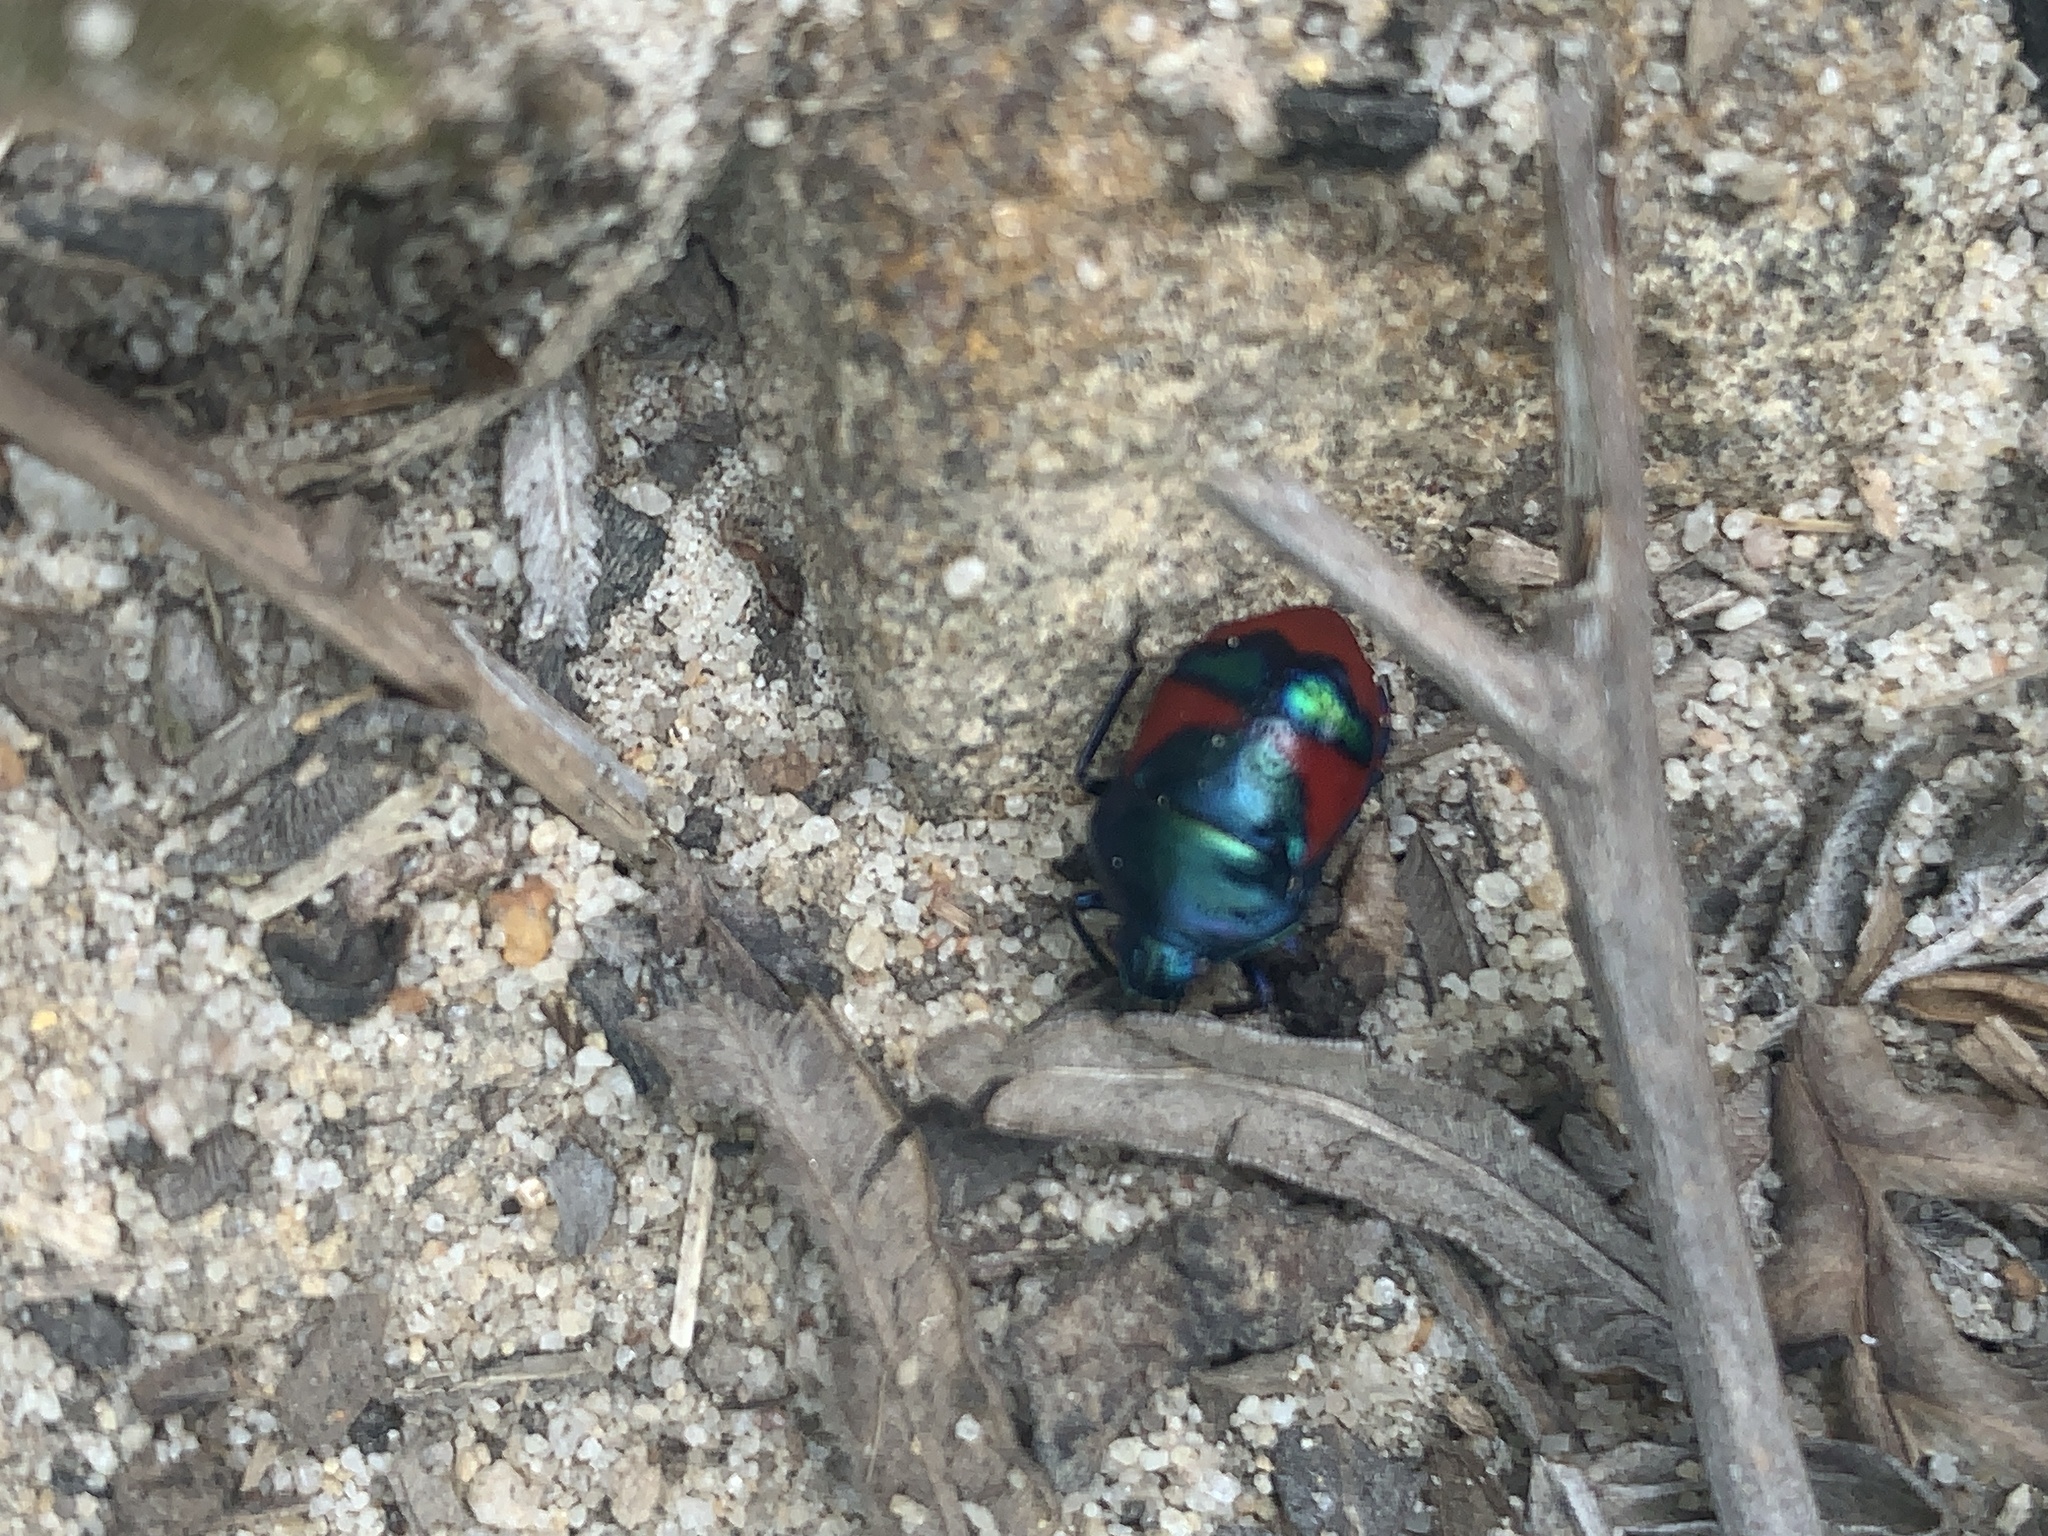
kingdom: Animalia
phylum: Arthropoda
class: Insecta
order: Hemiptera
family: Scutelleridae
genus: Choerocoris
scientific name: Choerocoris paganus
